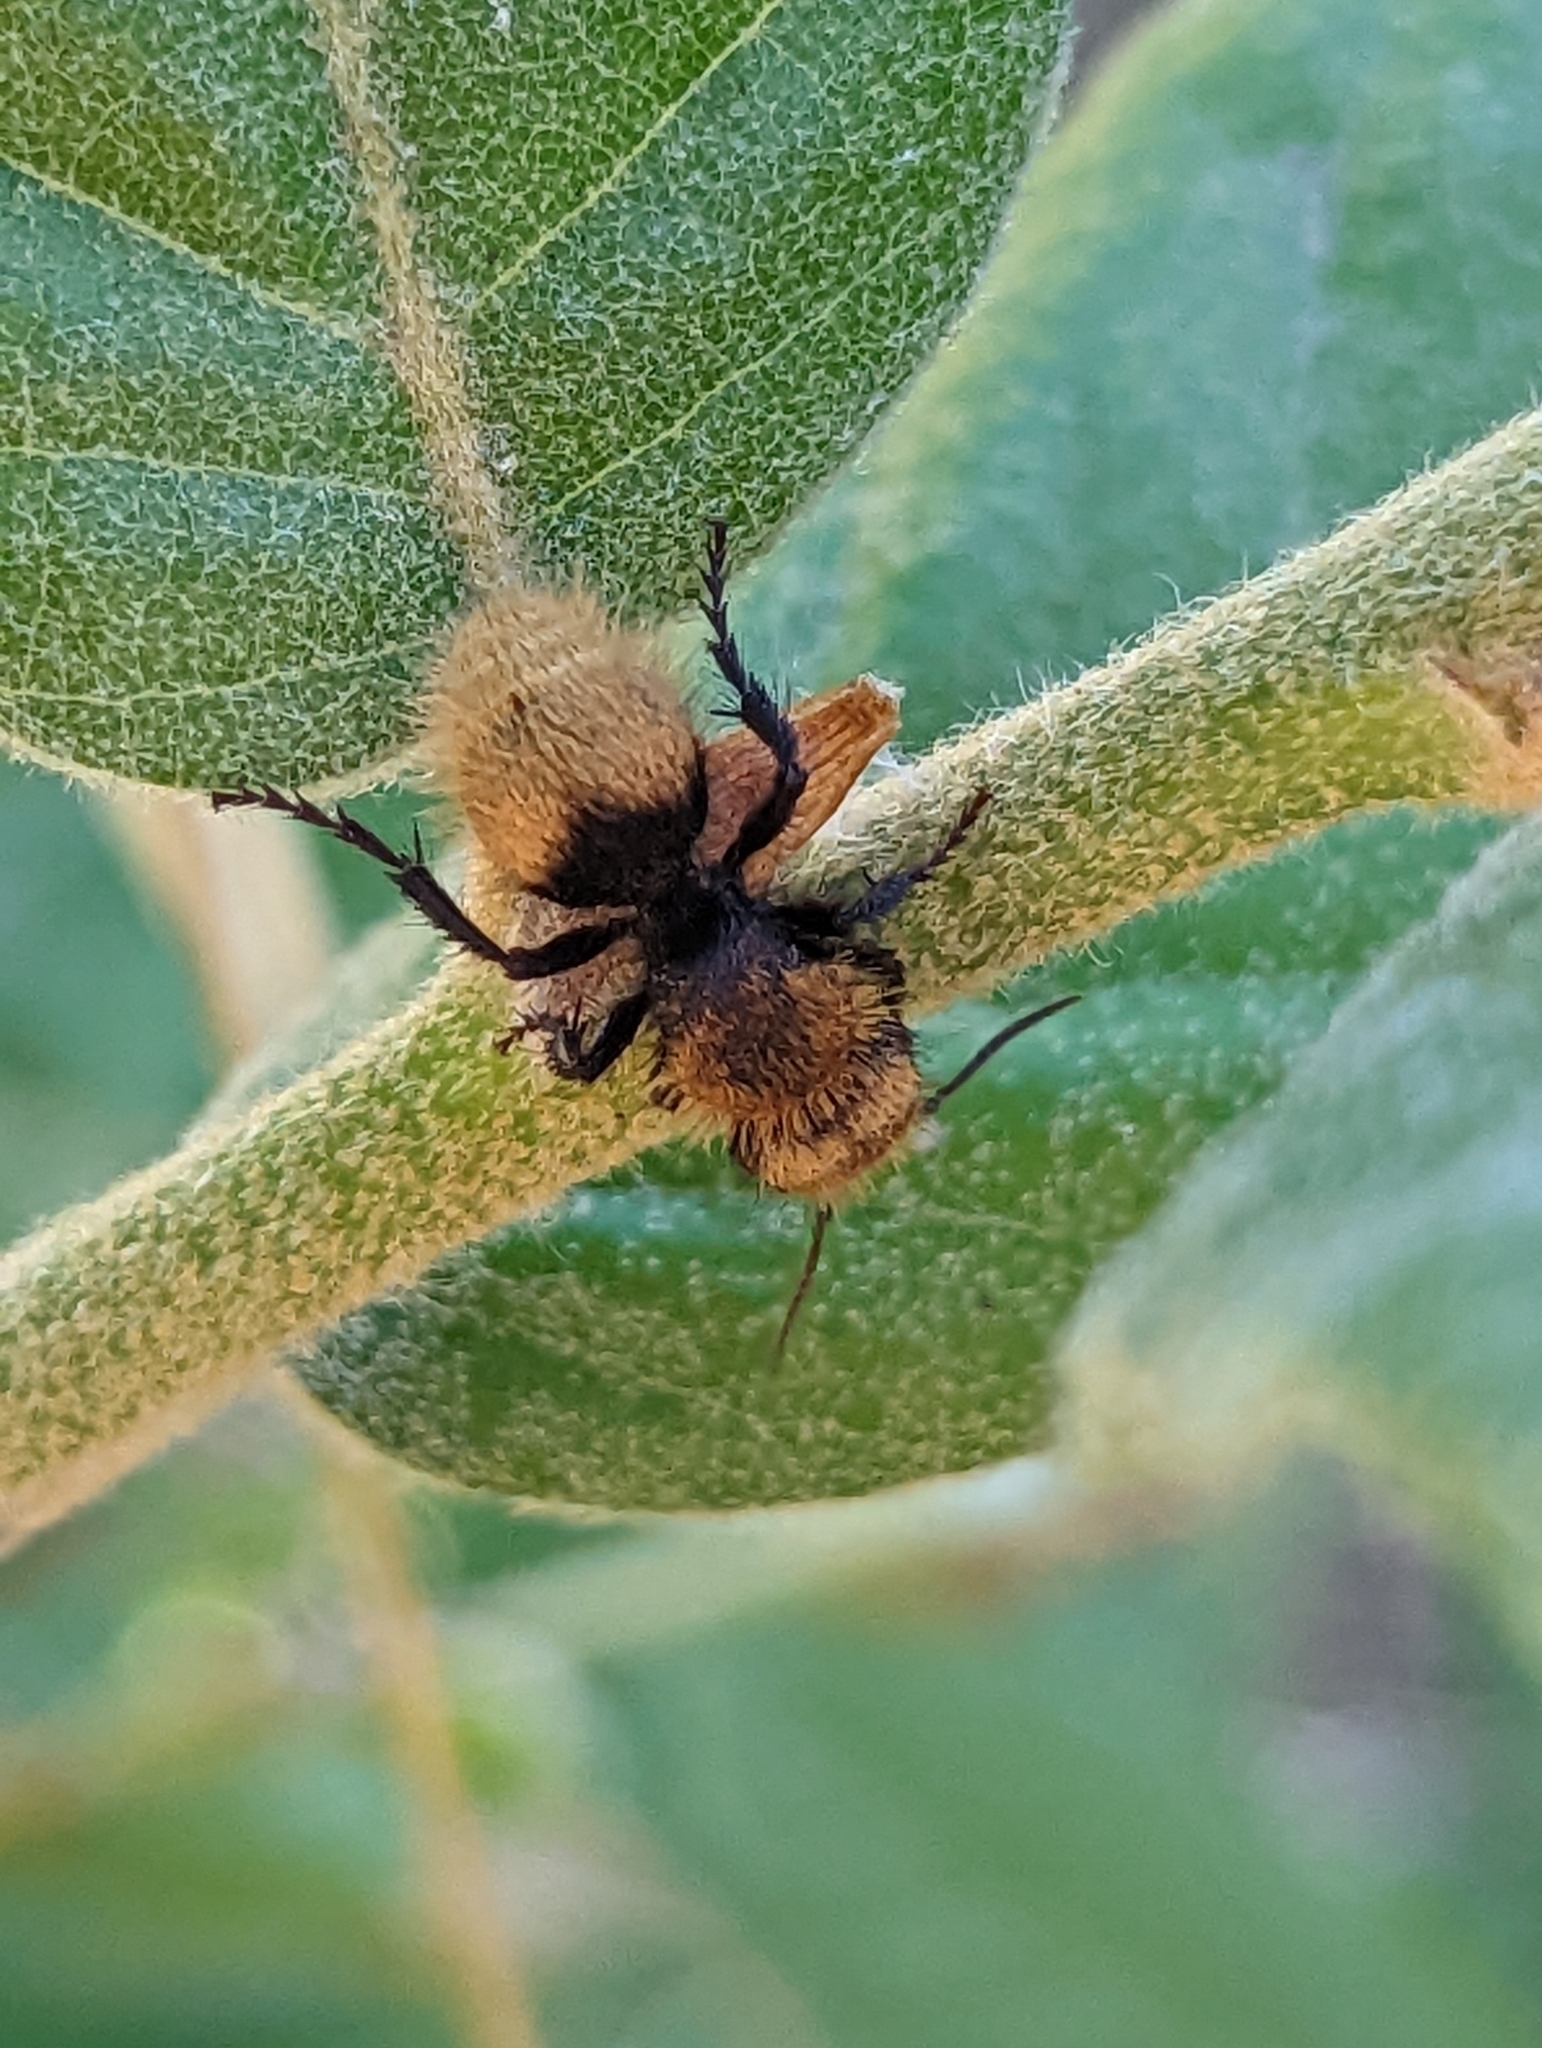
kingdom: Animalia
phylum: Arthropoda
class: Insecta
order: Hymenoptera
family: Mutillidae
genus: Dasymutilla
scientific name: Dasymutilla
